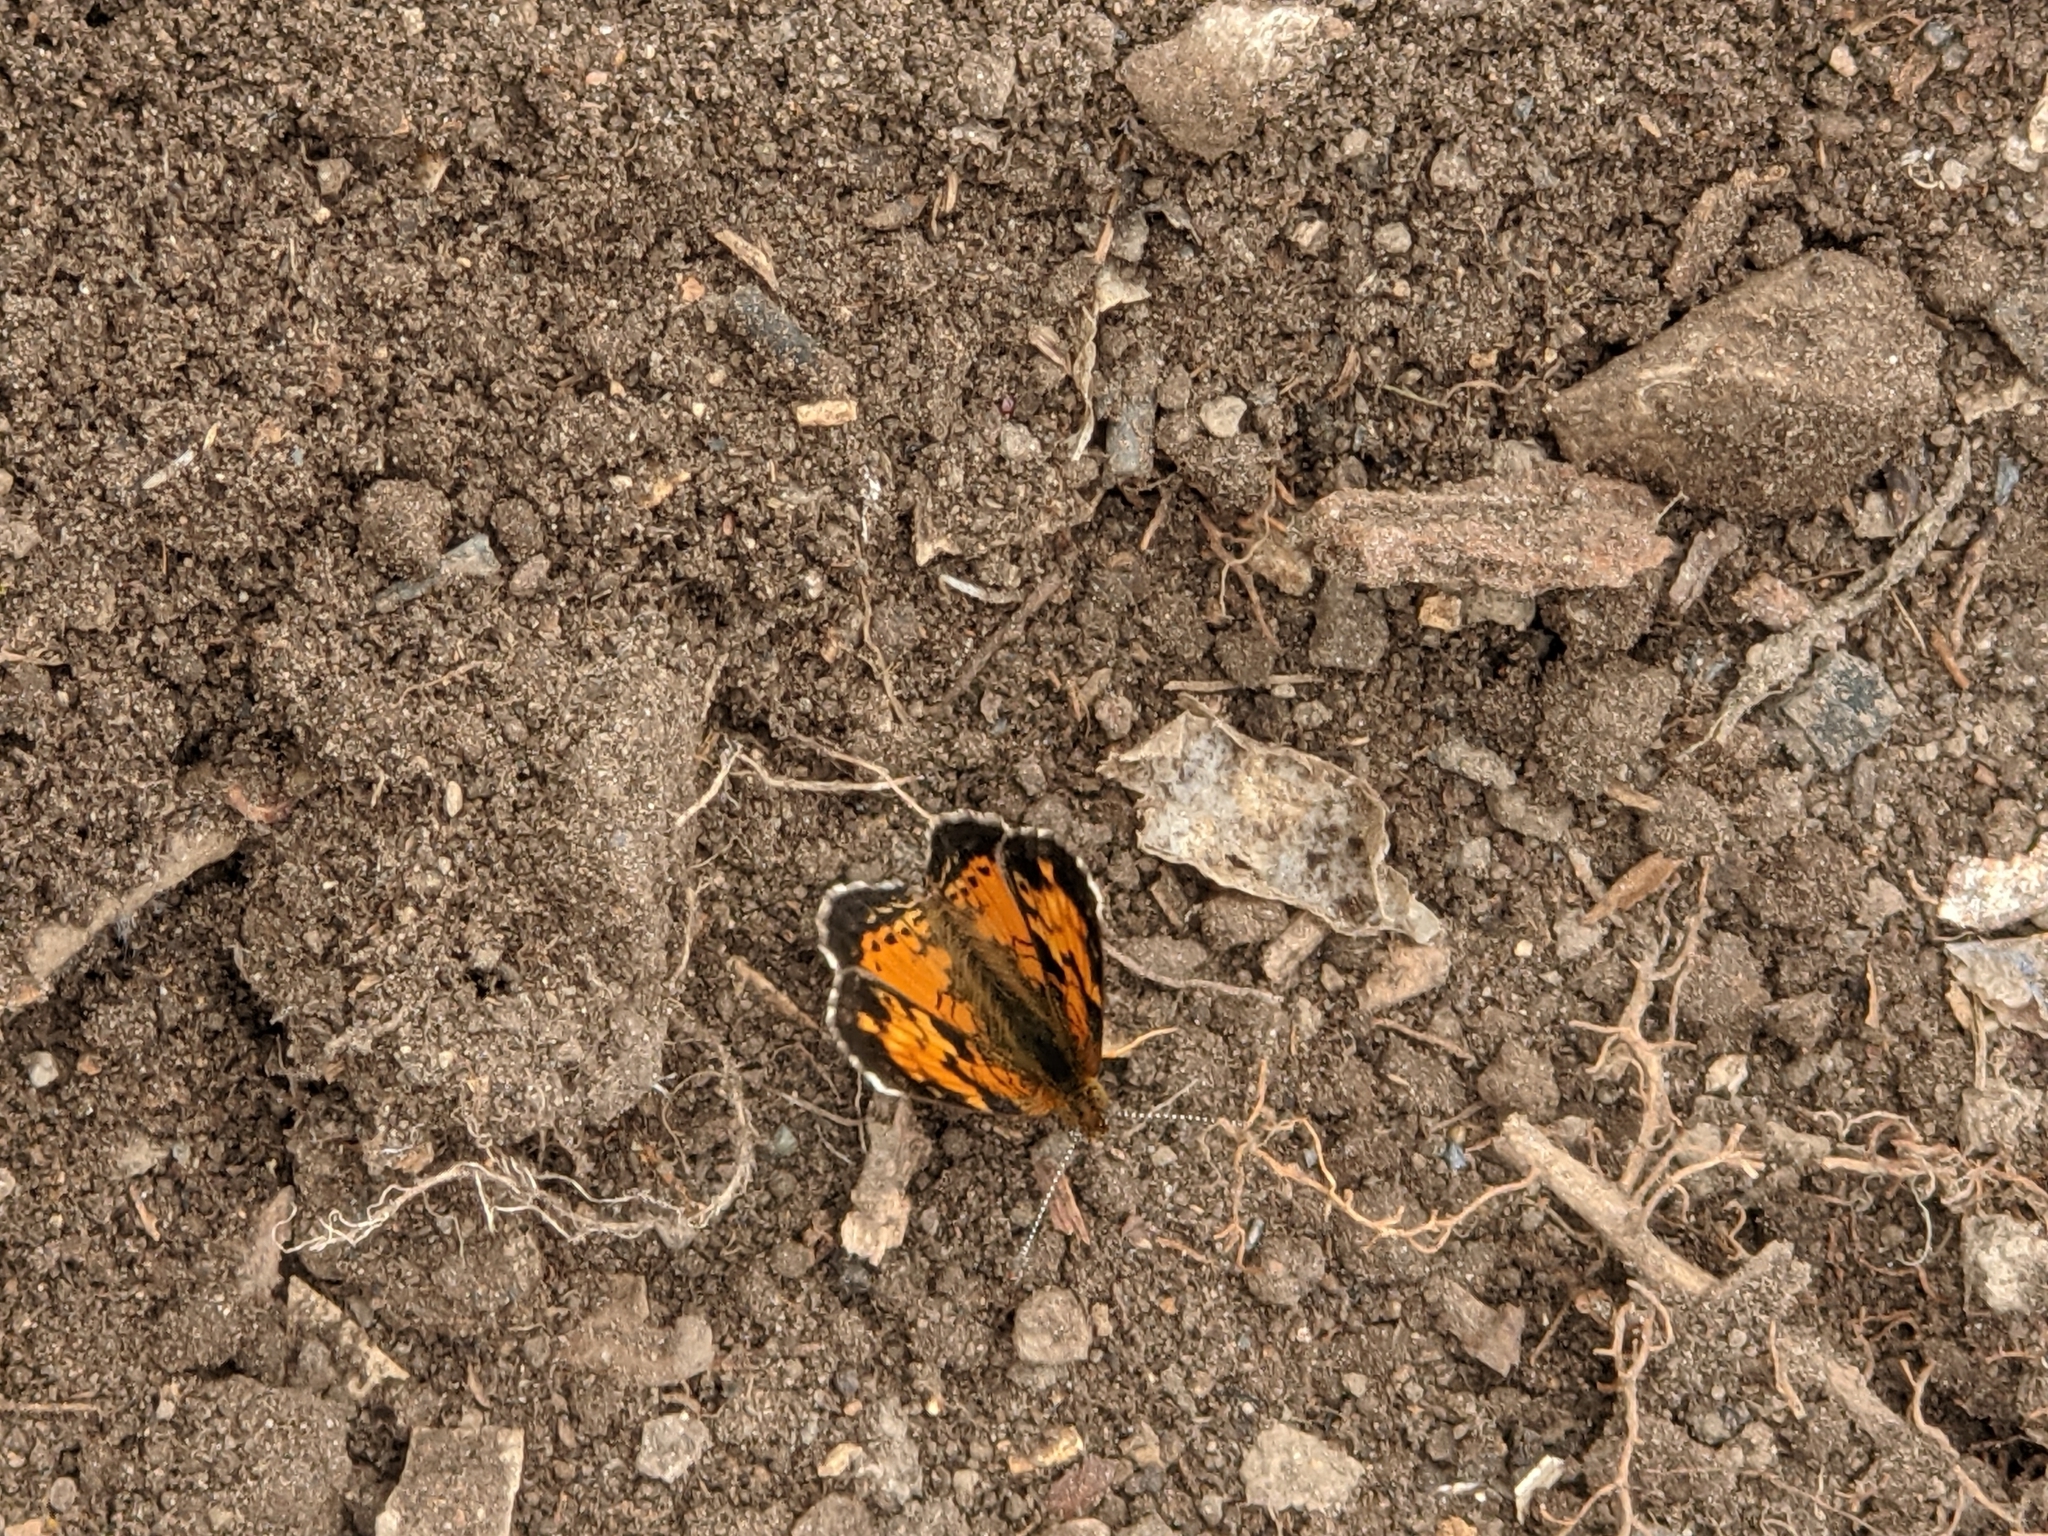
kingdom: Animalia
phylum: Arthropoda
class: Insecta
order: Lepidoptera
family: Nymphalidae
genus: Phyciodes
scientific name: Phyciodes tharos
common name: Pearl crescent
